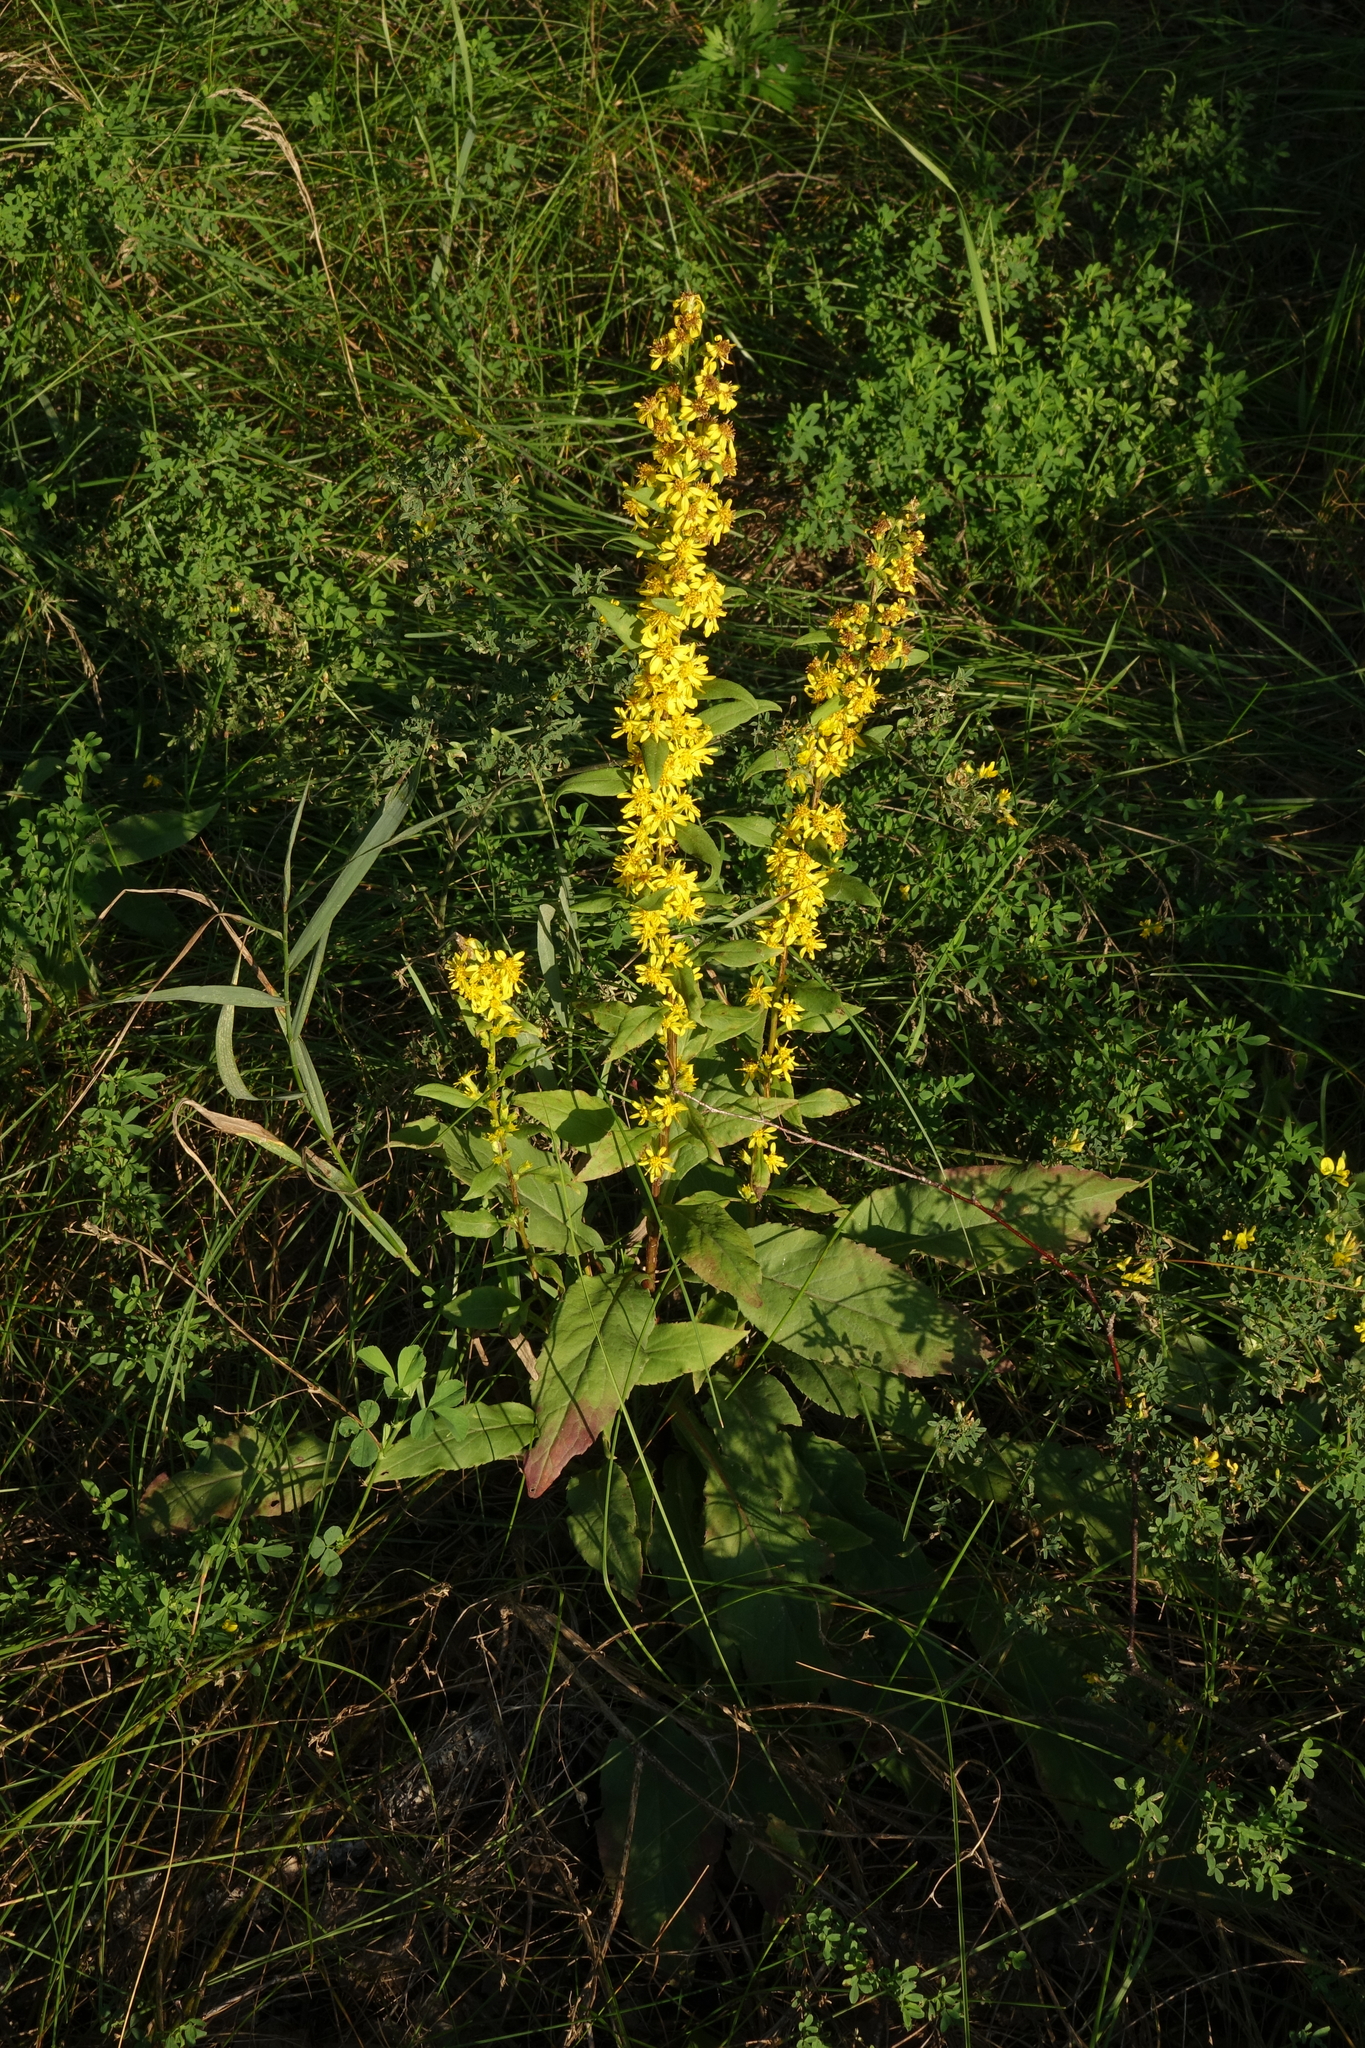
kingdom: Plantae
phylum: Tracheophyta
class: Magnoliopsida
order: Asterales
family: Asteraceae
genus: Solidago
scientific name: Solidago virgaurea
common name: Goldenrod
